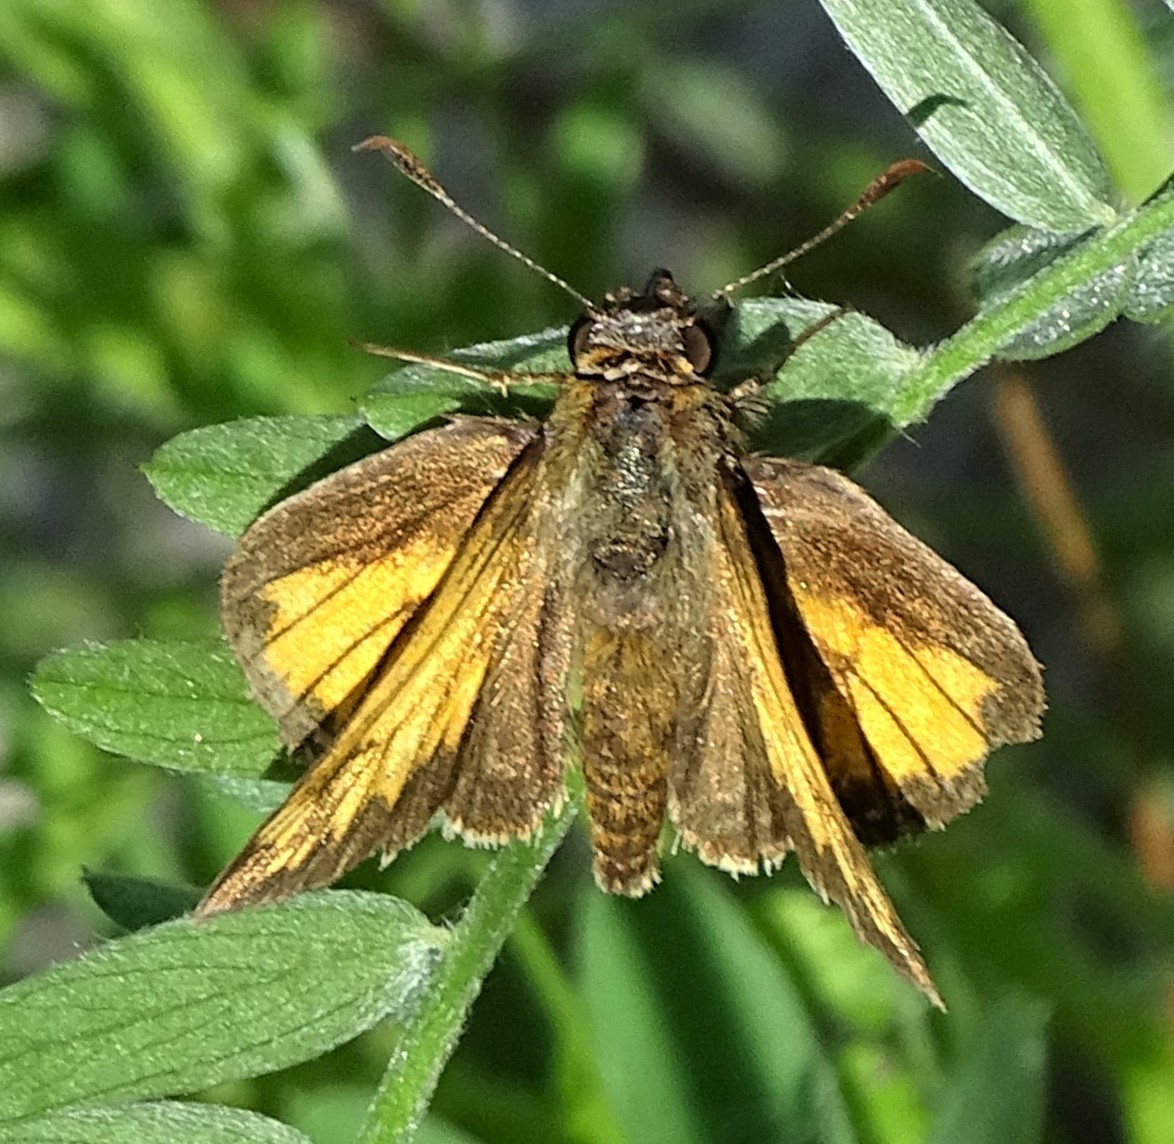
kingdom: Animalia
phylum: Arthropoda
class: Insecta
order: Lepidoptera
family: Hesperiidae
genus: Lon
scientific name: Lon hobomok
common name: Hobomok skipper
